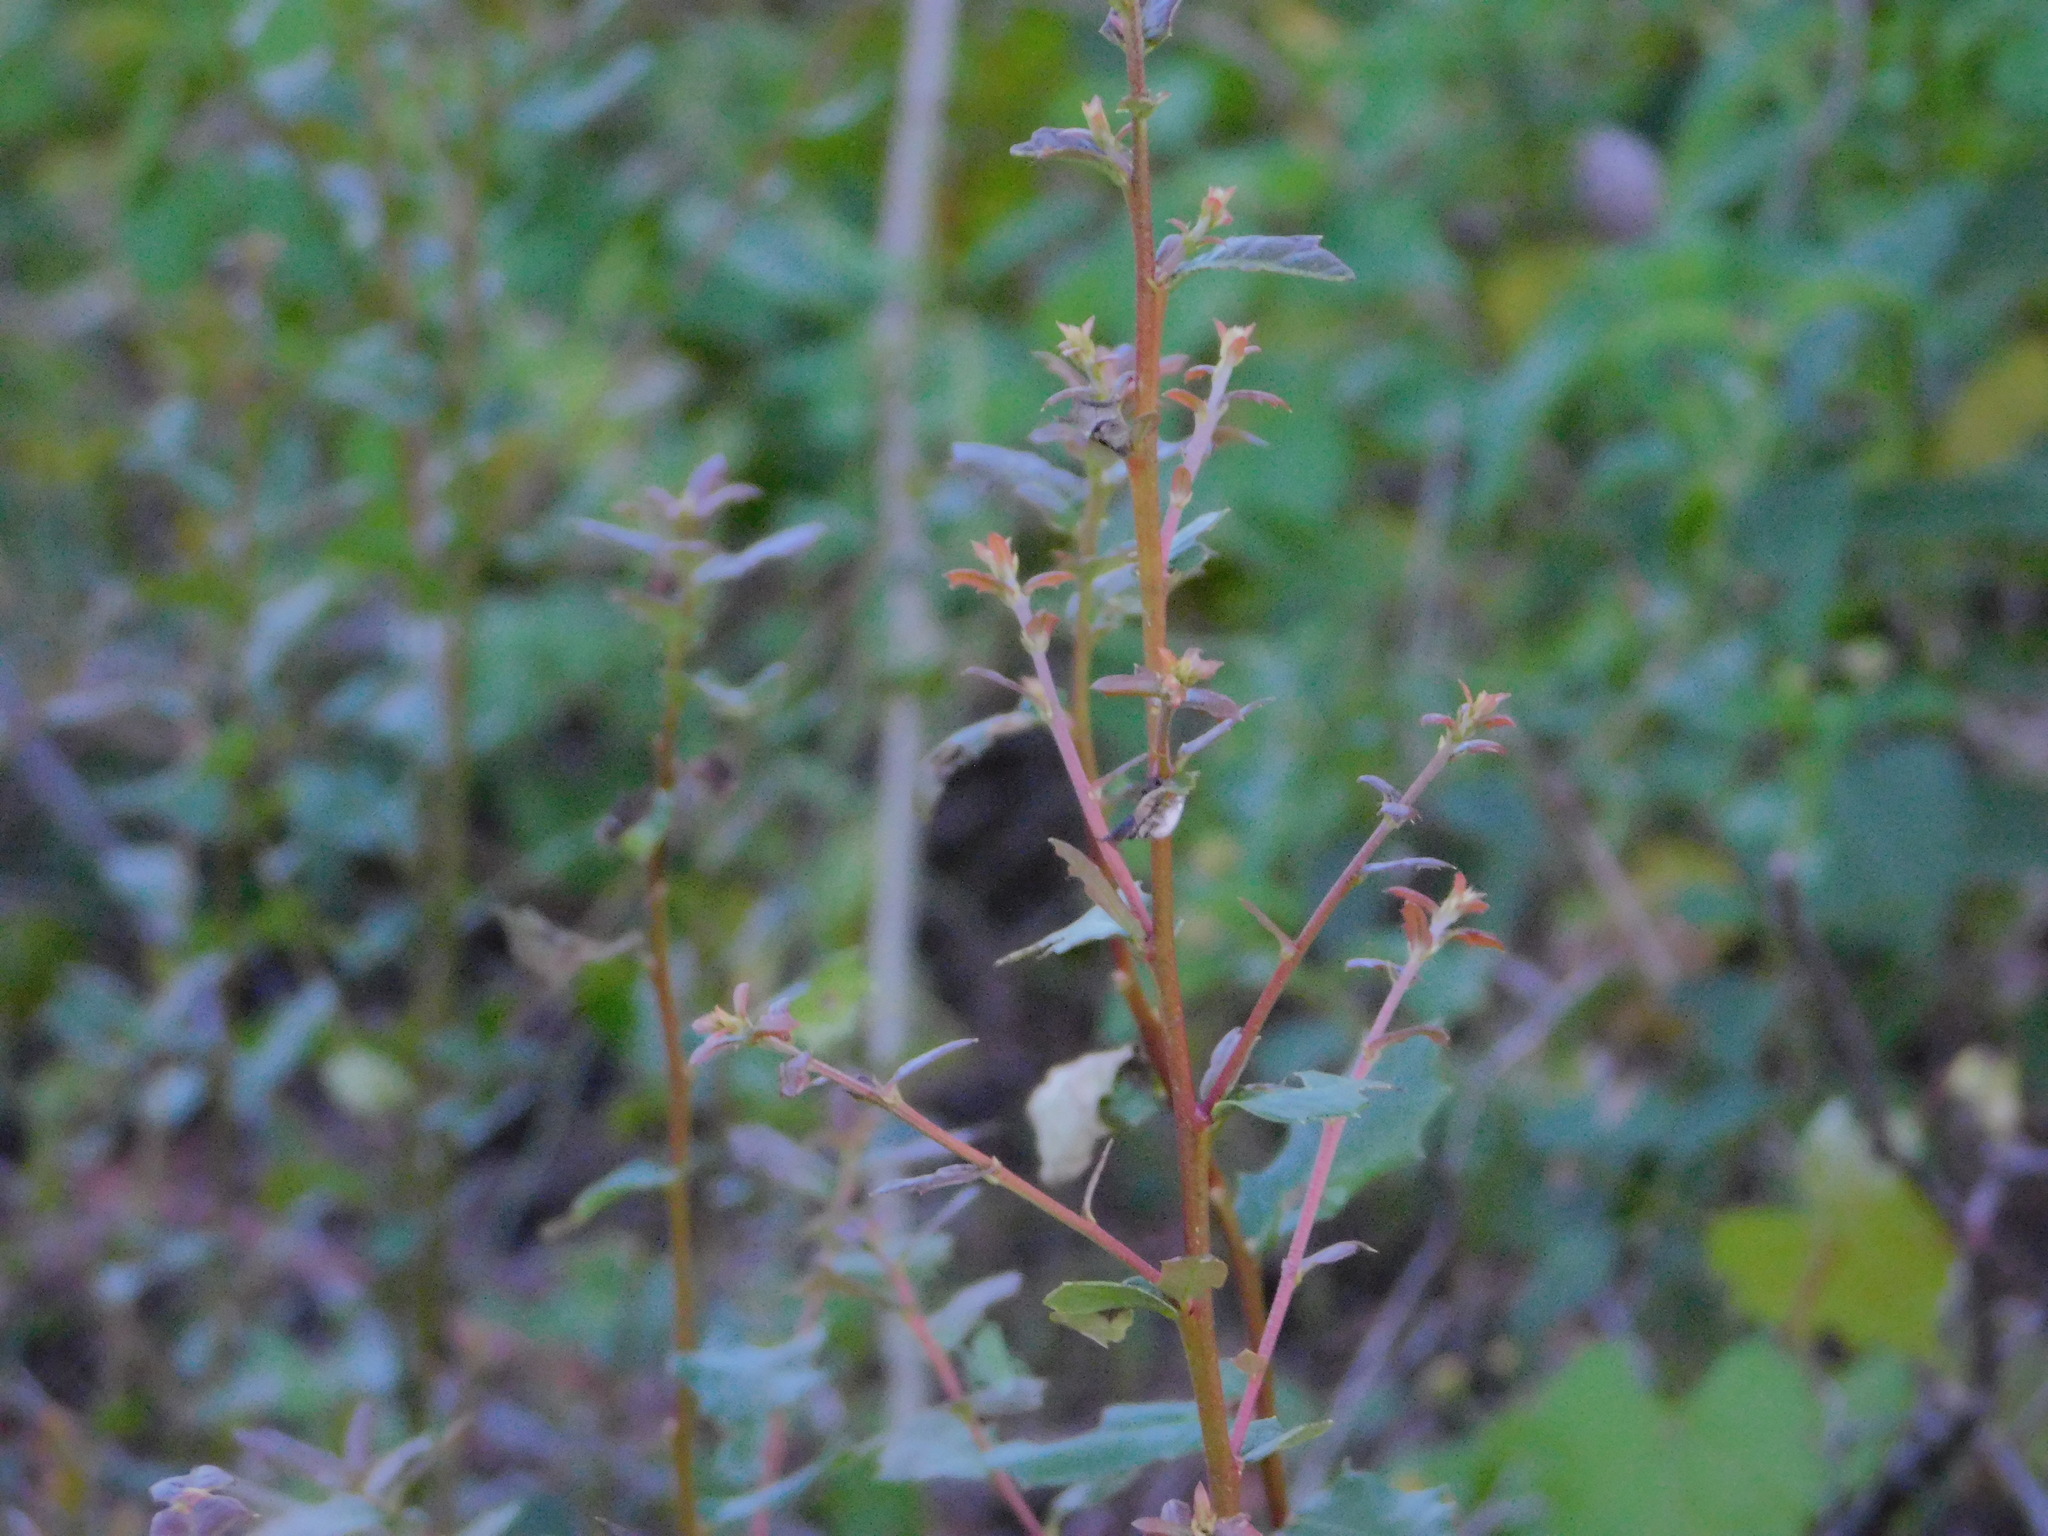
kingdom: Plantae
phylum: Tracheophyta
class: Magnoliopsida
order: Fagales
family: Fagaceae
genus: Quercus
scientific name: Quercus virginiana
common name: Southern live oak
